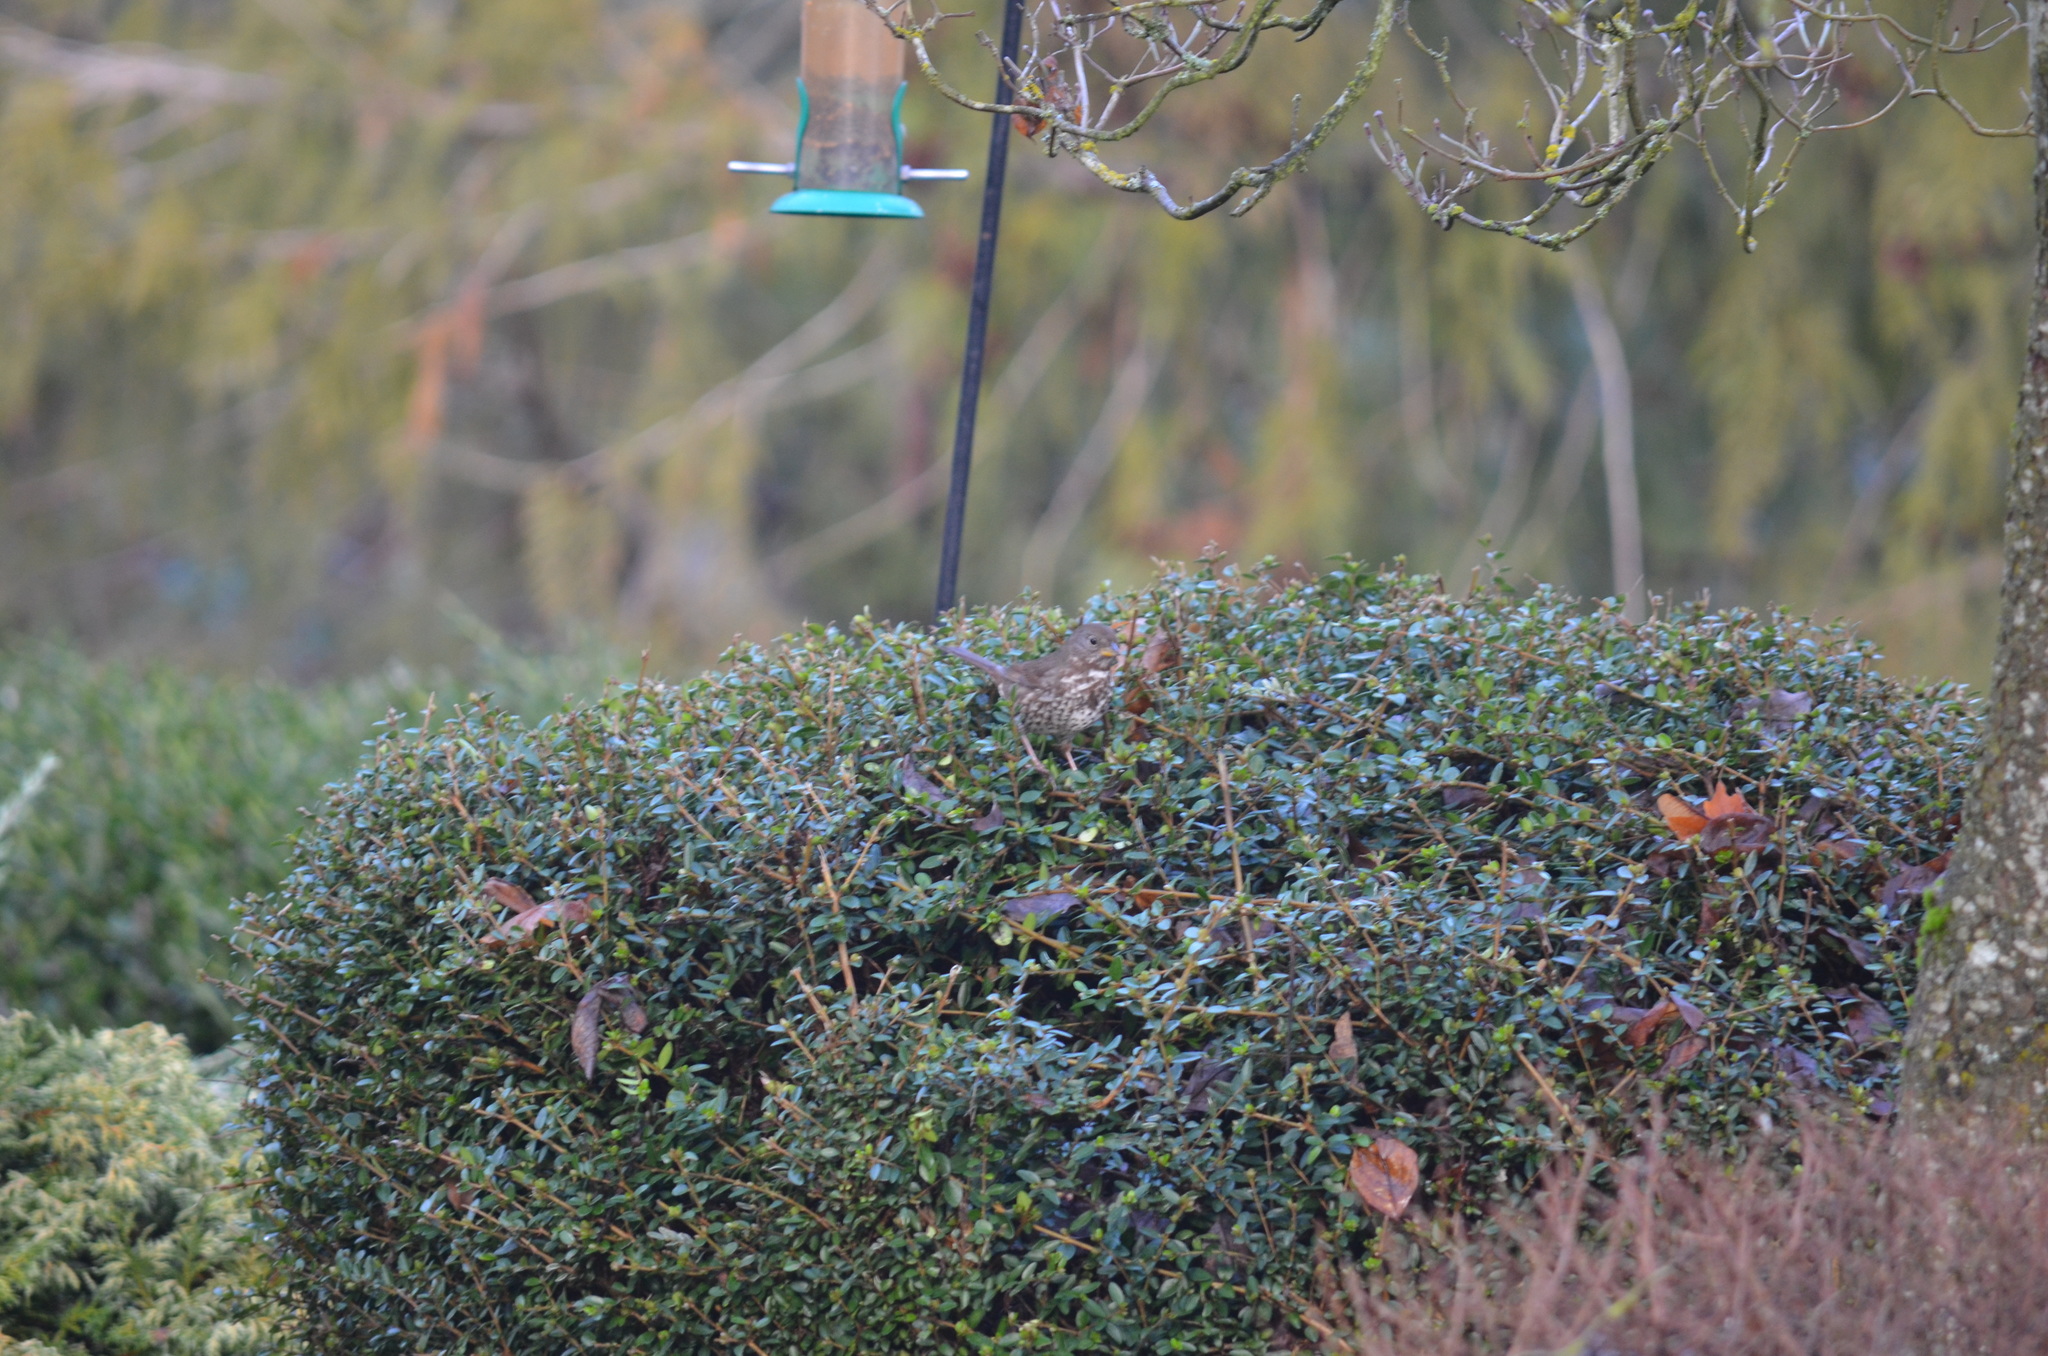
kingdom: Animalia
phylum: Chordata
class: Aves
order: Passeriformes
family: Passerellidae
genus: Passerella
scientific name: Passerella iliaca
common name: Fox sparrow
